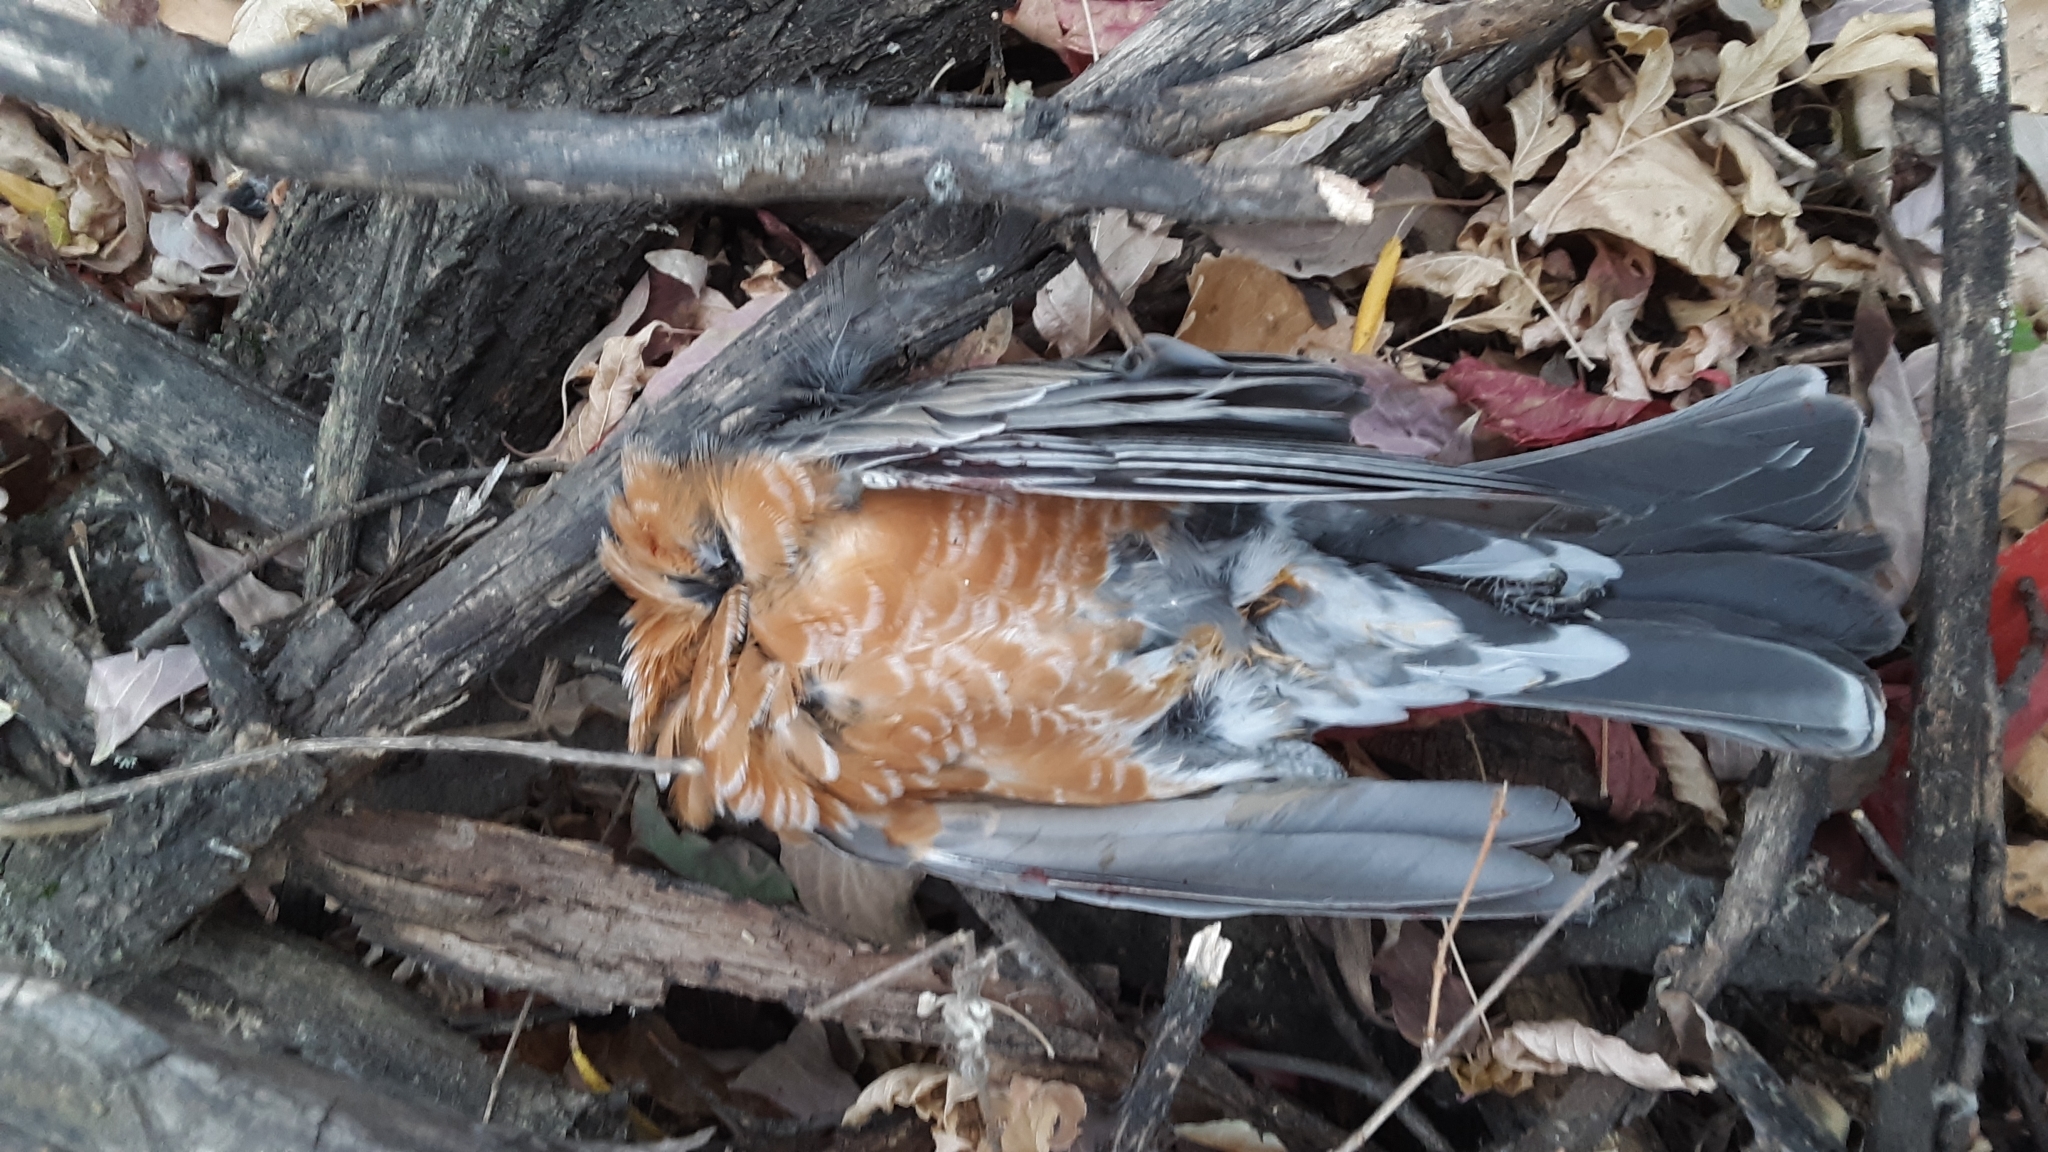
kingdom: Animalia
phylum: Chordata
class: Aves
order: Passeriformes
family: Turdidae
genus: Turdus
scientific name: Turdus migratorius
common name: American robin
